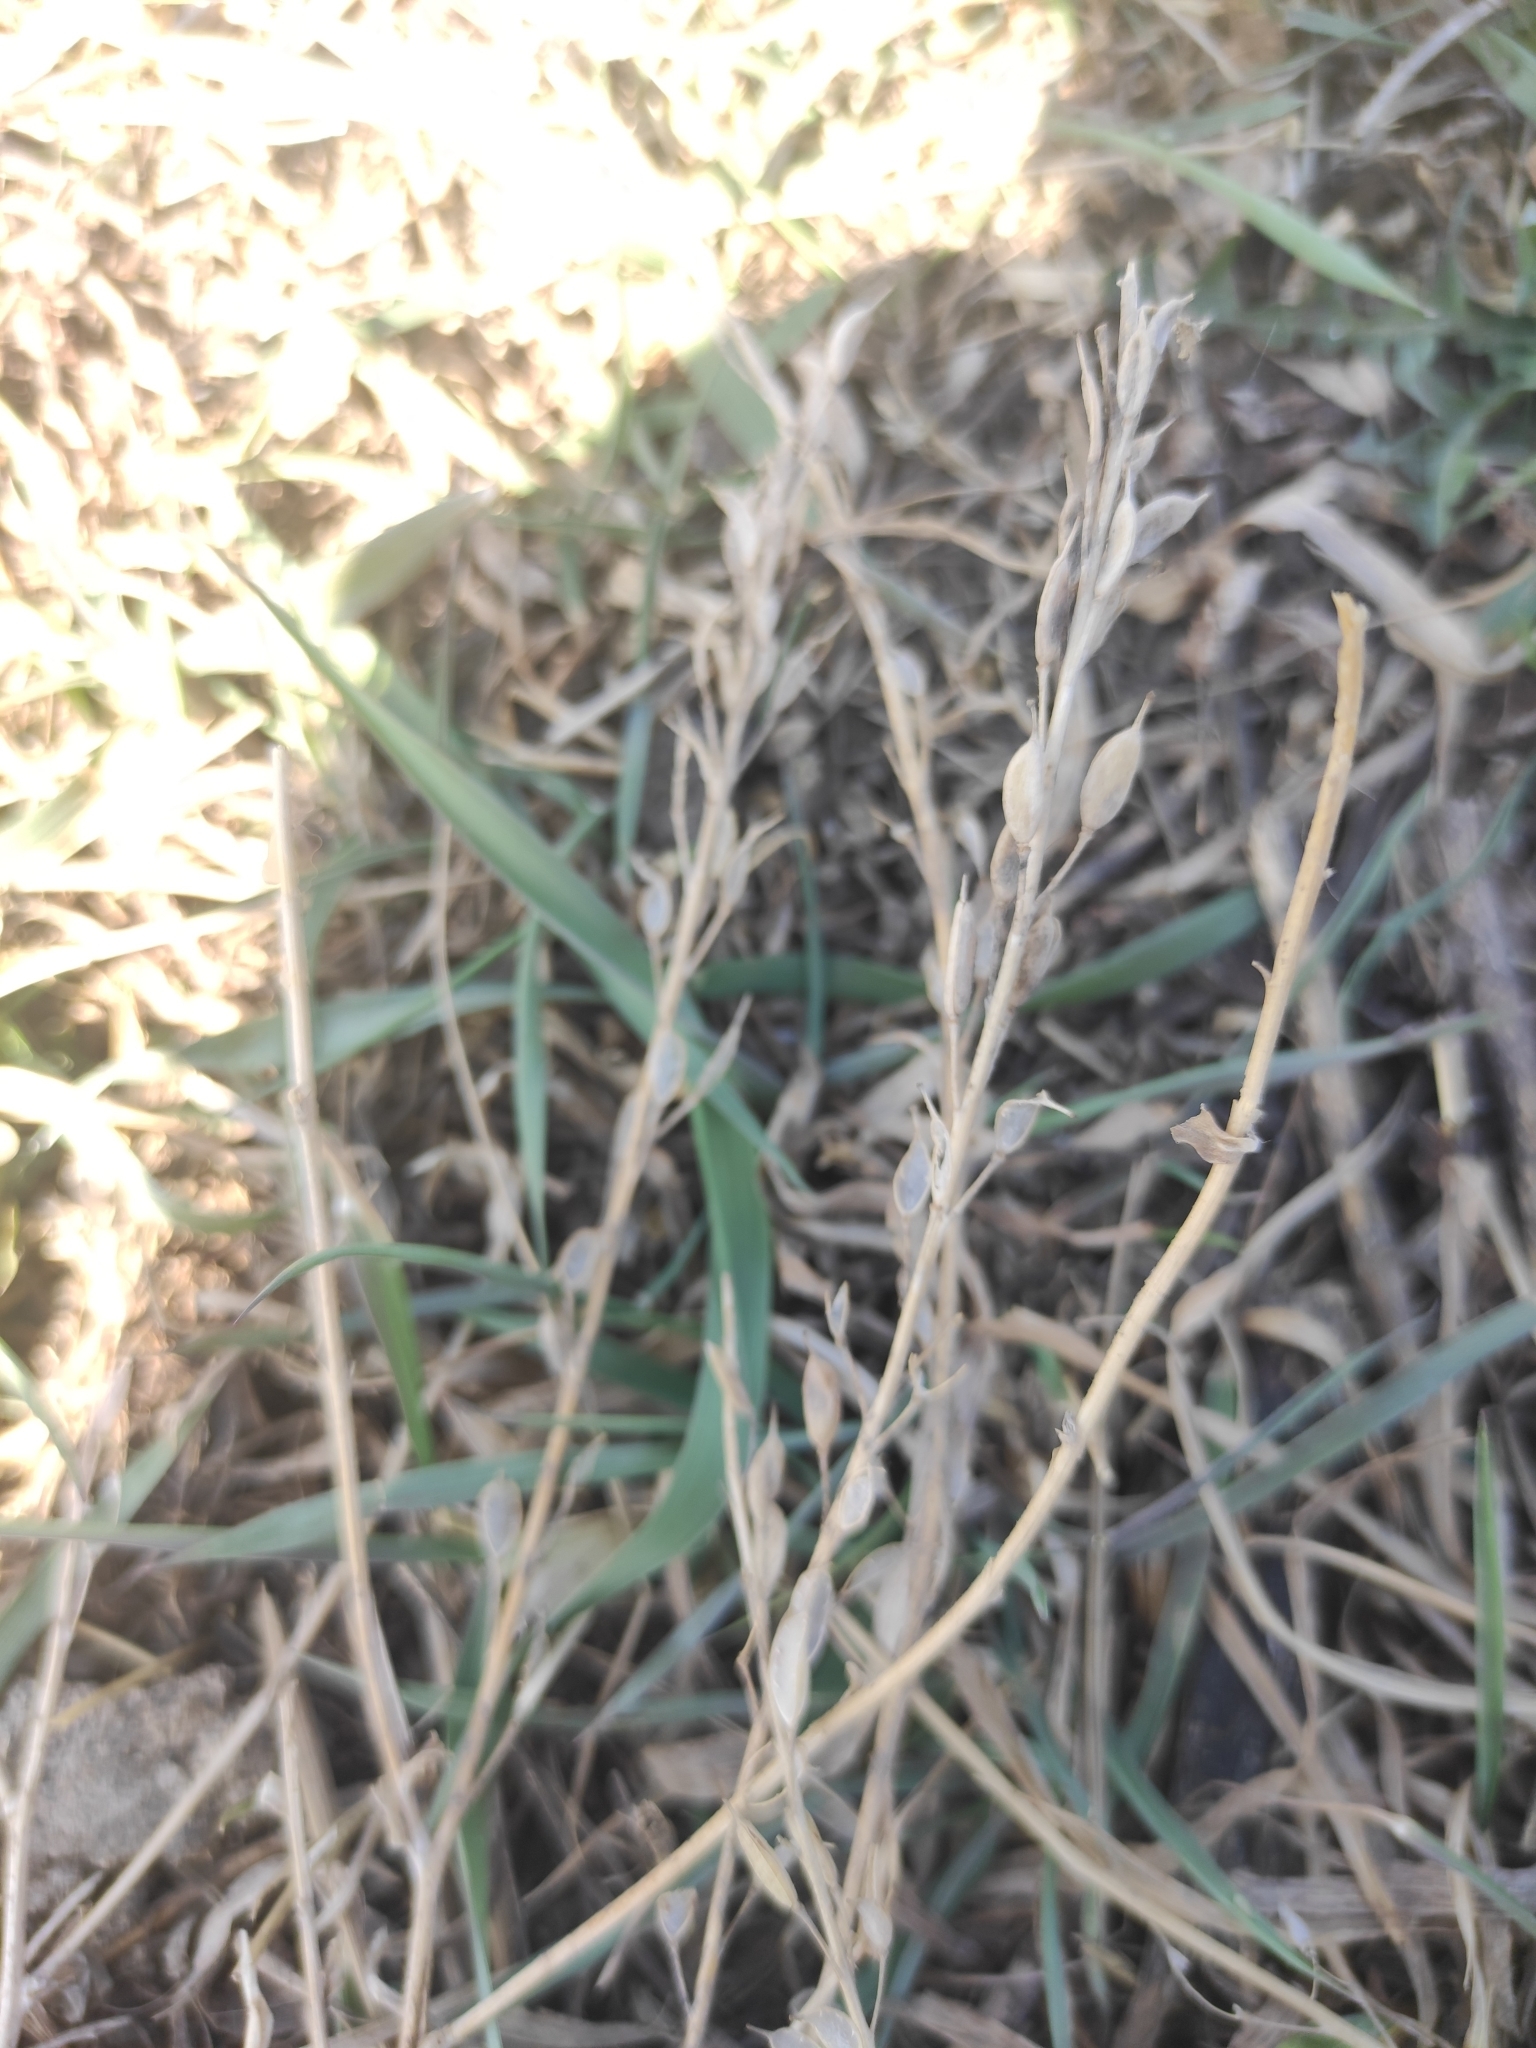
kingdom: Plantae
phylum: Tracheophyta
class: Magnoliopsida
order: Brassicales
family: Brassicaceae
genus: Berteroa
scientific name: Berteroa incana
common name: Hoary alison
